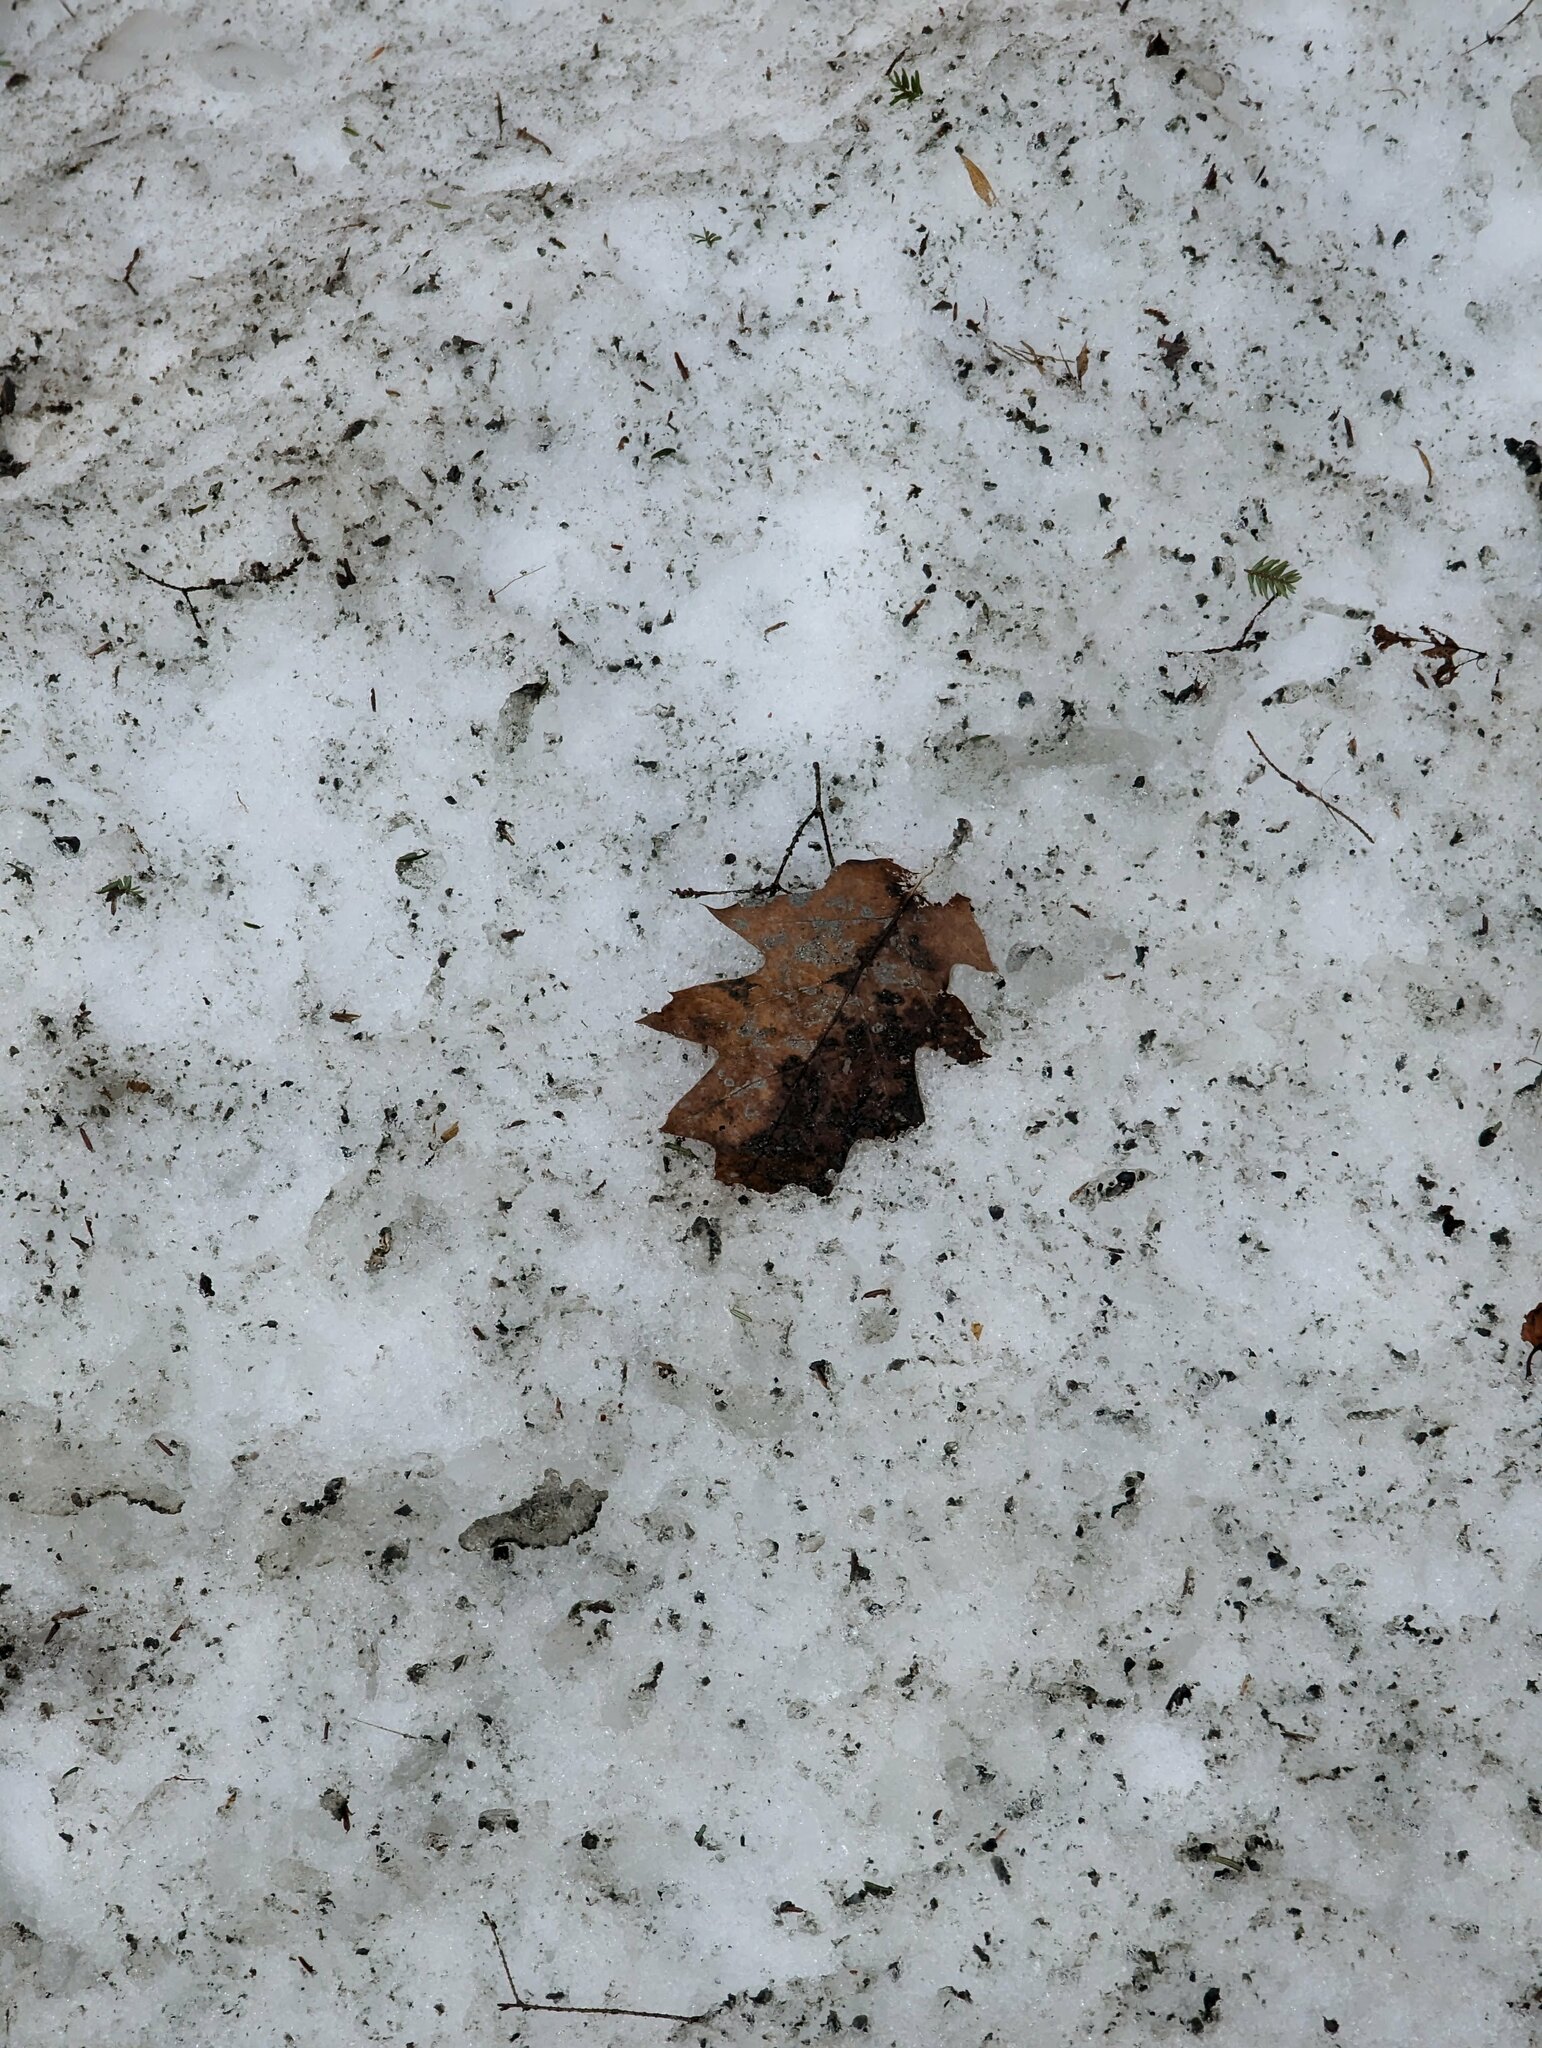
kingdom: Plantae
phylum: Tracheophyta
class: Magnoliopsida
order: Fagales
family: Fagaceae
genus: Quercus
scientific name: Quercus rubra
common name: Red oak
